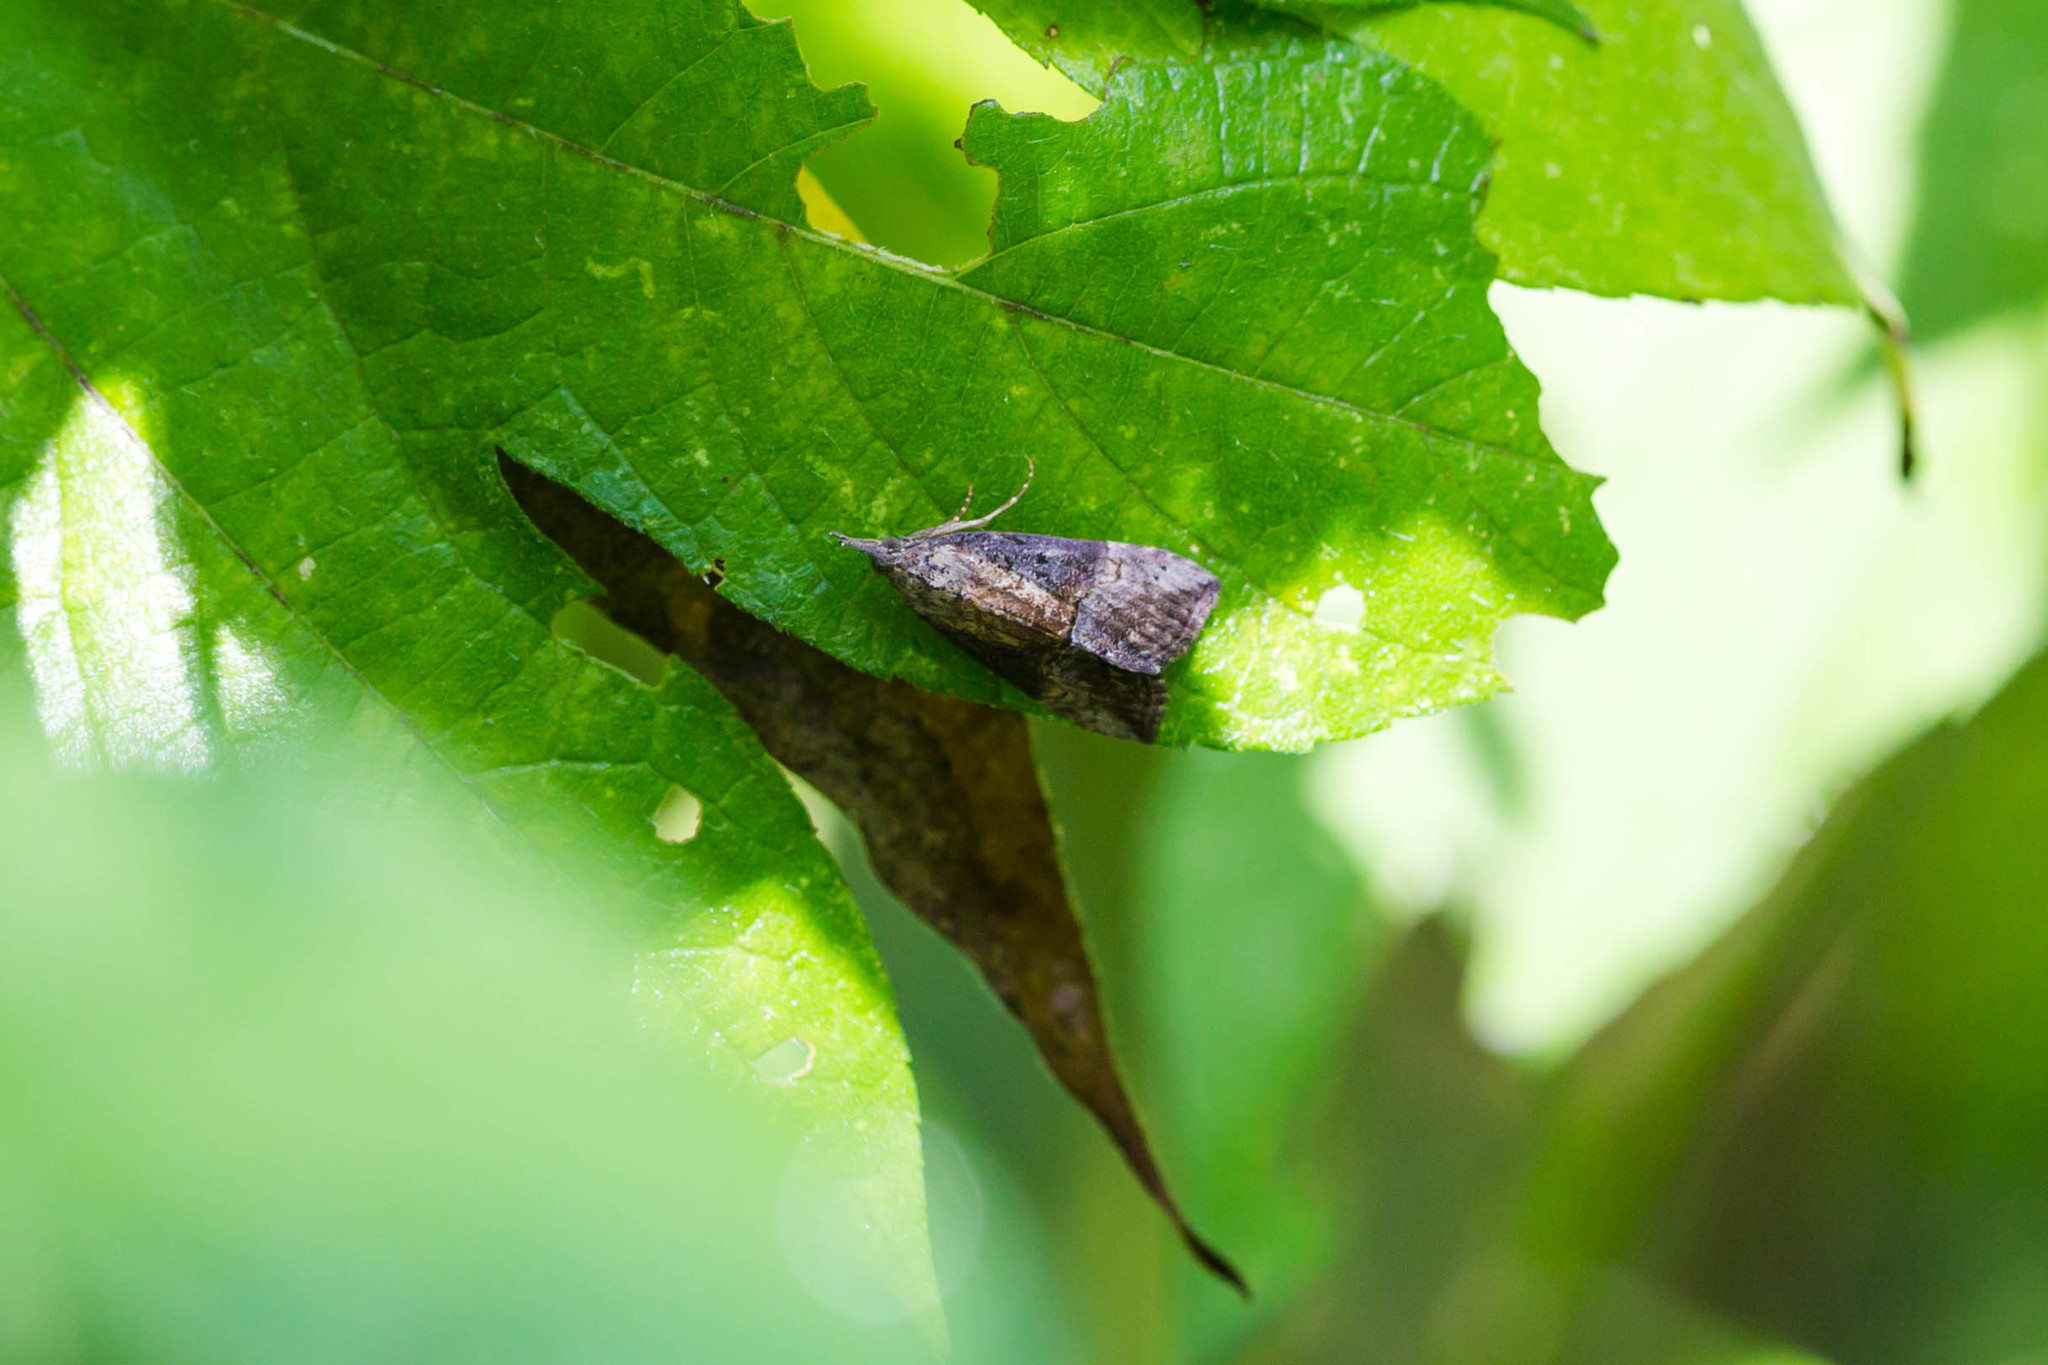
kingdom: Animalia
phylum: Arthropoda
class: Insecta
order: Lepidoptera
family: Erebidae
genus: Hypena
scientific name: Hypena scabra
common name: Green cloverworm
